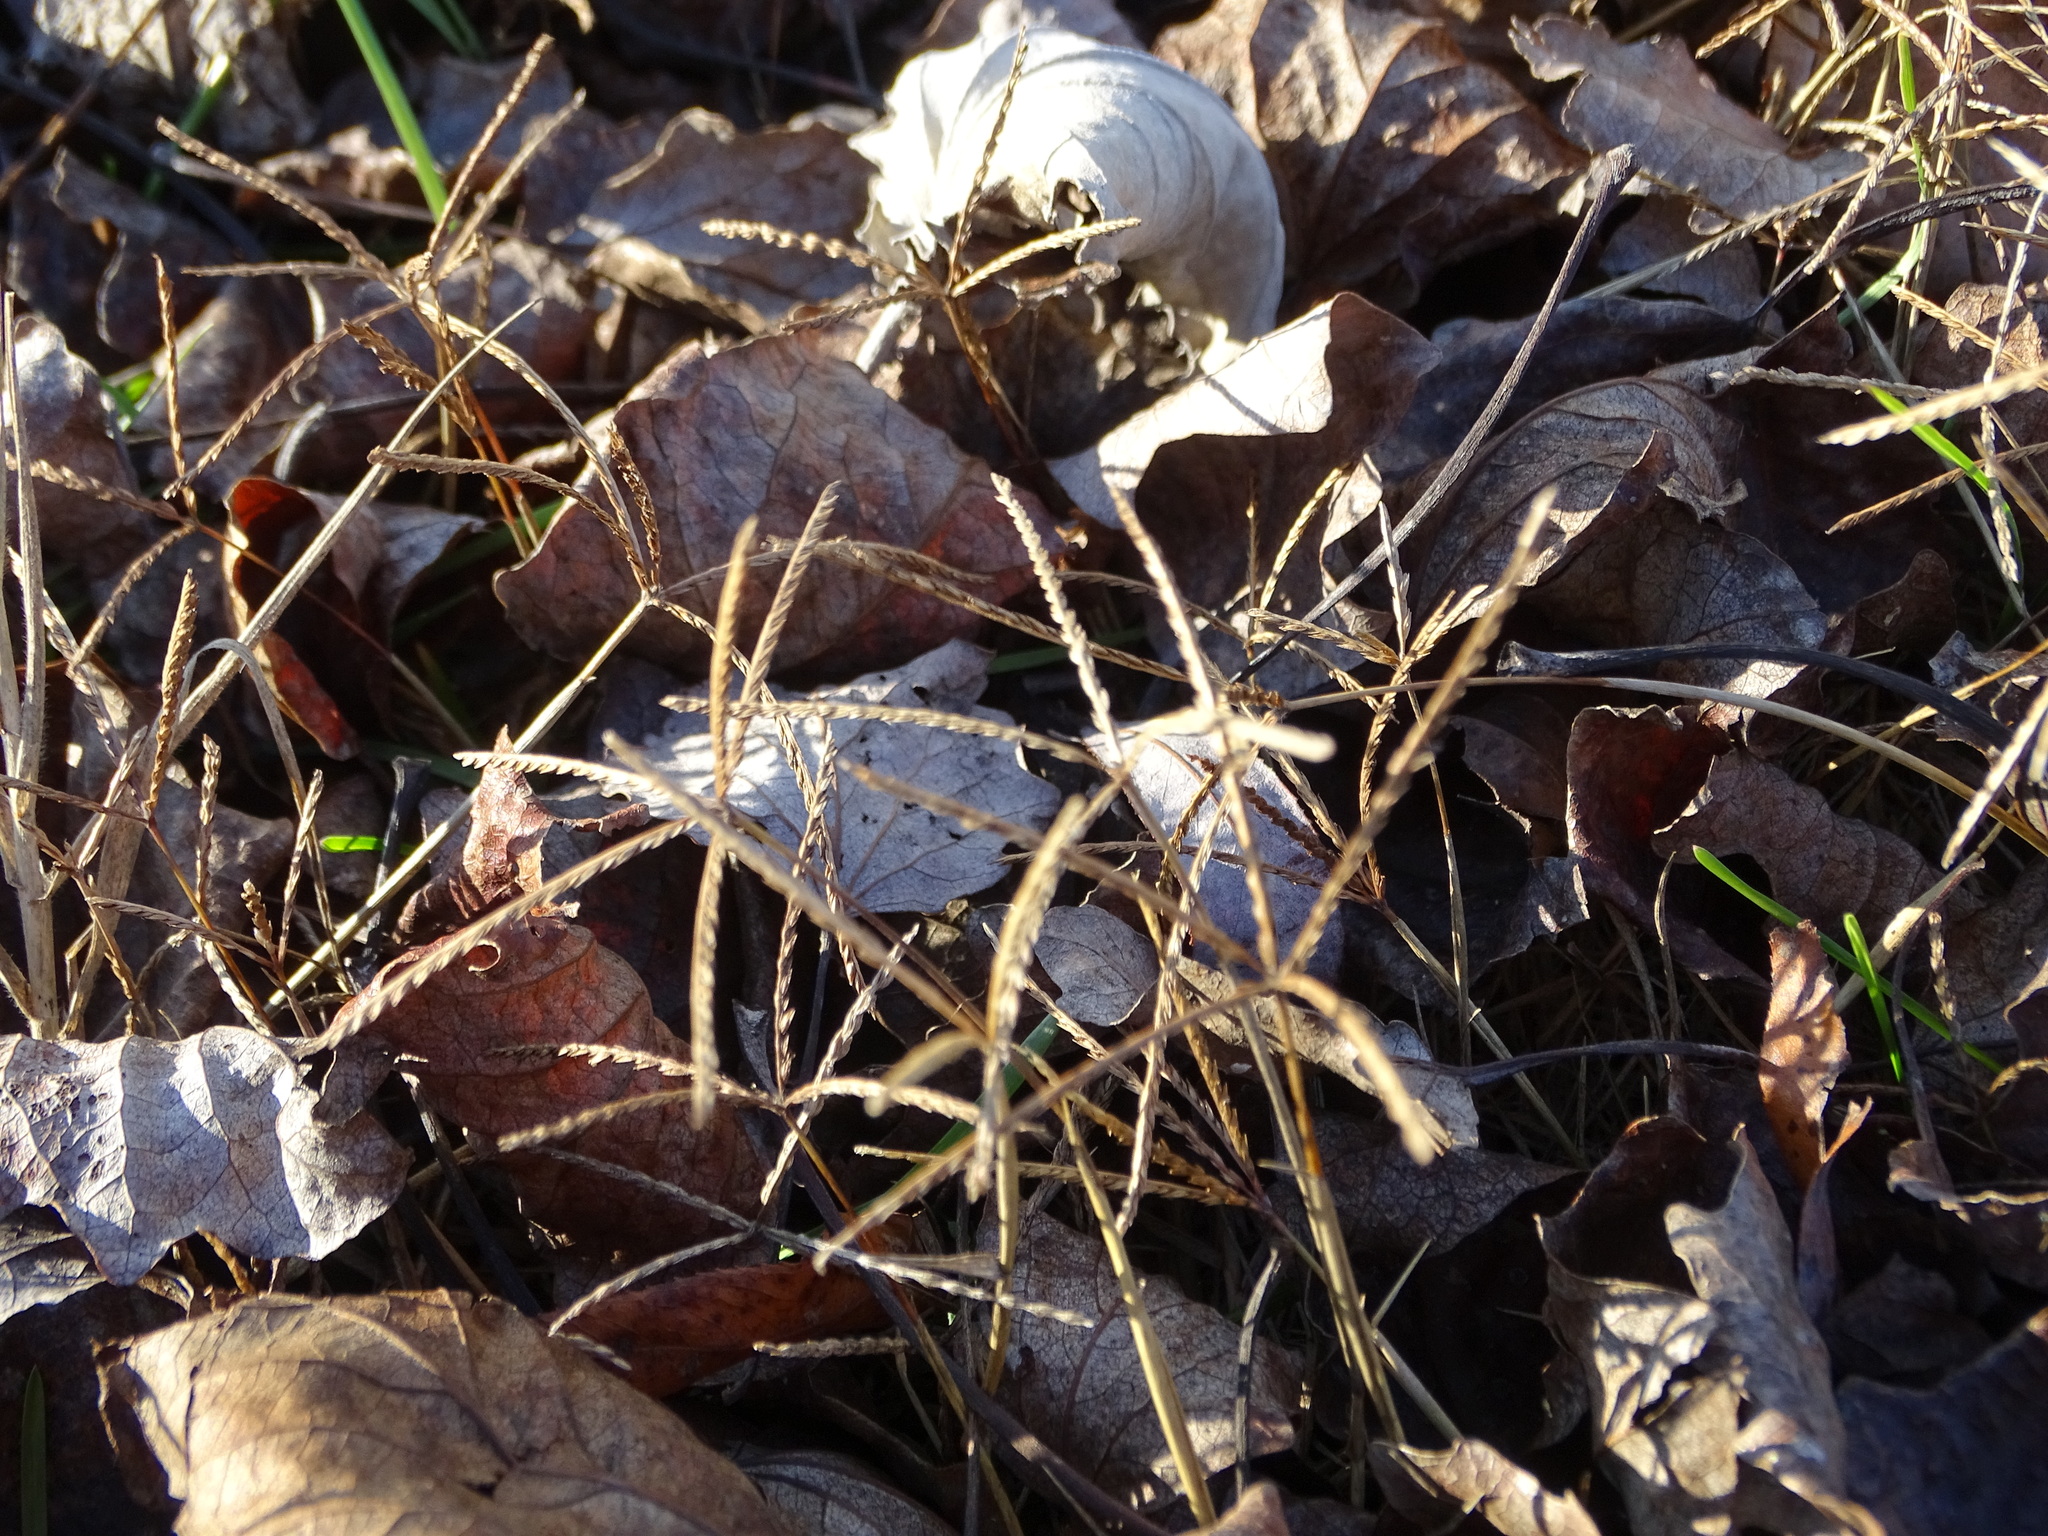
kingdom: Plantae
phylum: Tracheophyta
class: Liliopsida
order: Poales
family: Poaceae
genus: Cynodon
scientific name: Cynodon dactylon
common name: Bermuda grass
